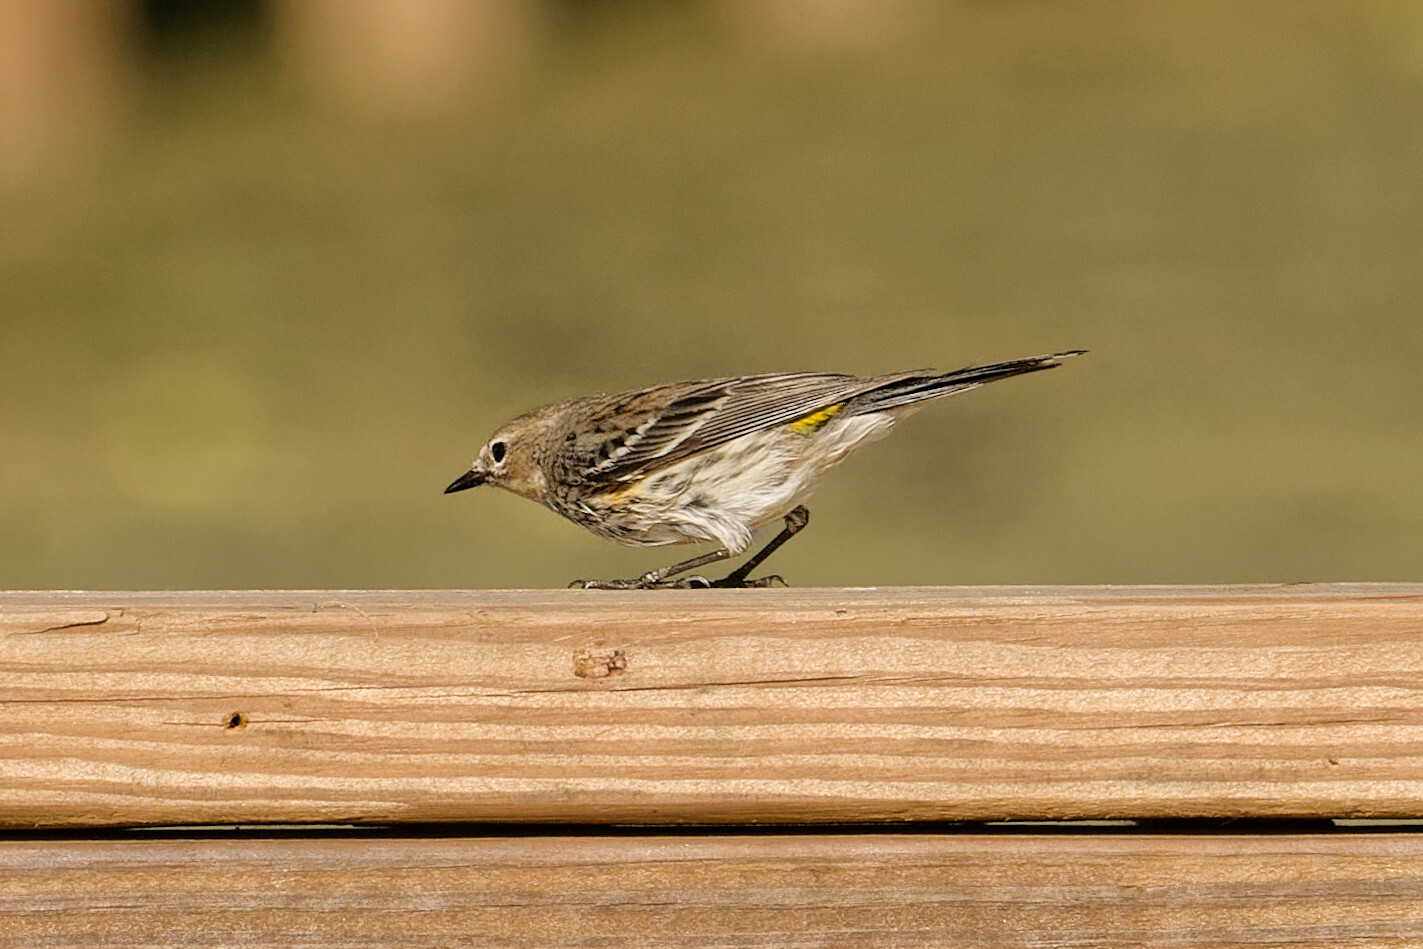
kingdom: Animalia
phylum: Chordata
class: Aves
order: Passeriformes
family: Parulidae
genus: Setophaga
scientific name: Setophaga coronata
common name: Myrtle warbler
